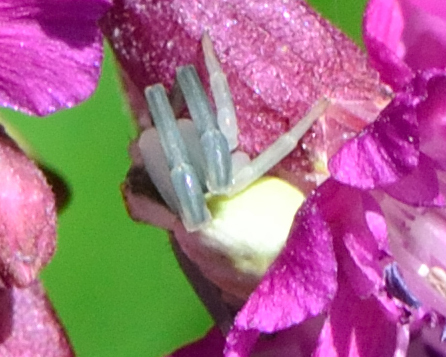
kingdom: Animalia
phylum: Arthropoda
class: Arachnida
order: Araneae
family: Thomisidae
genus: Misumena
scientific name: Misumena vatia
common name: Goldenrod crab spider
